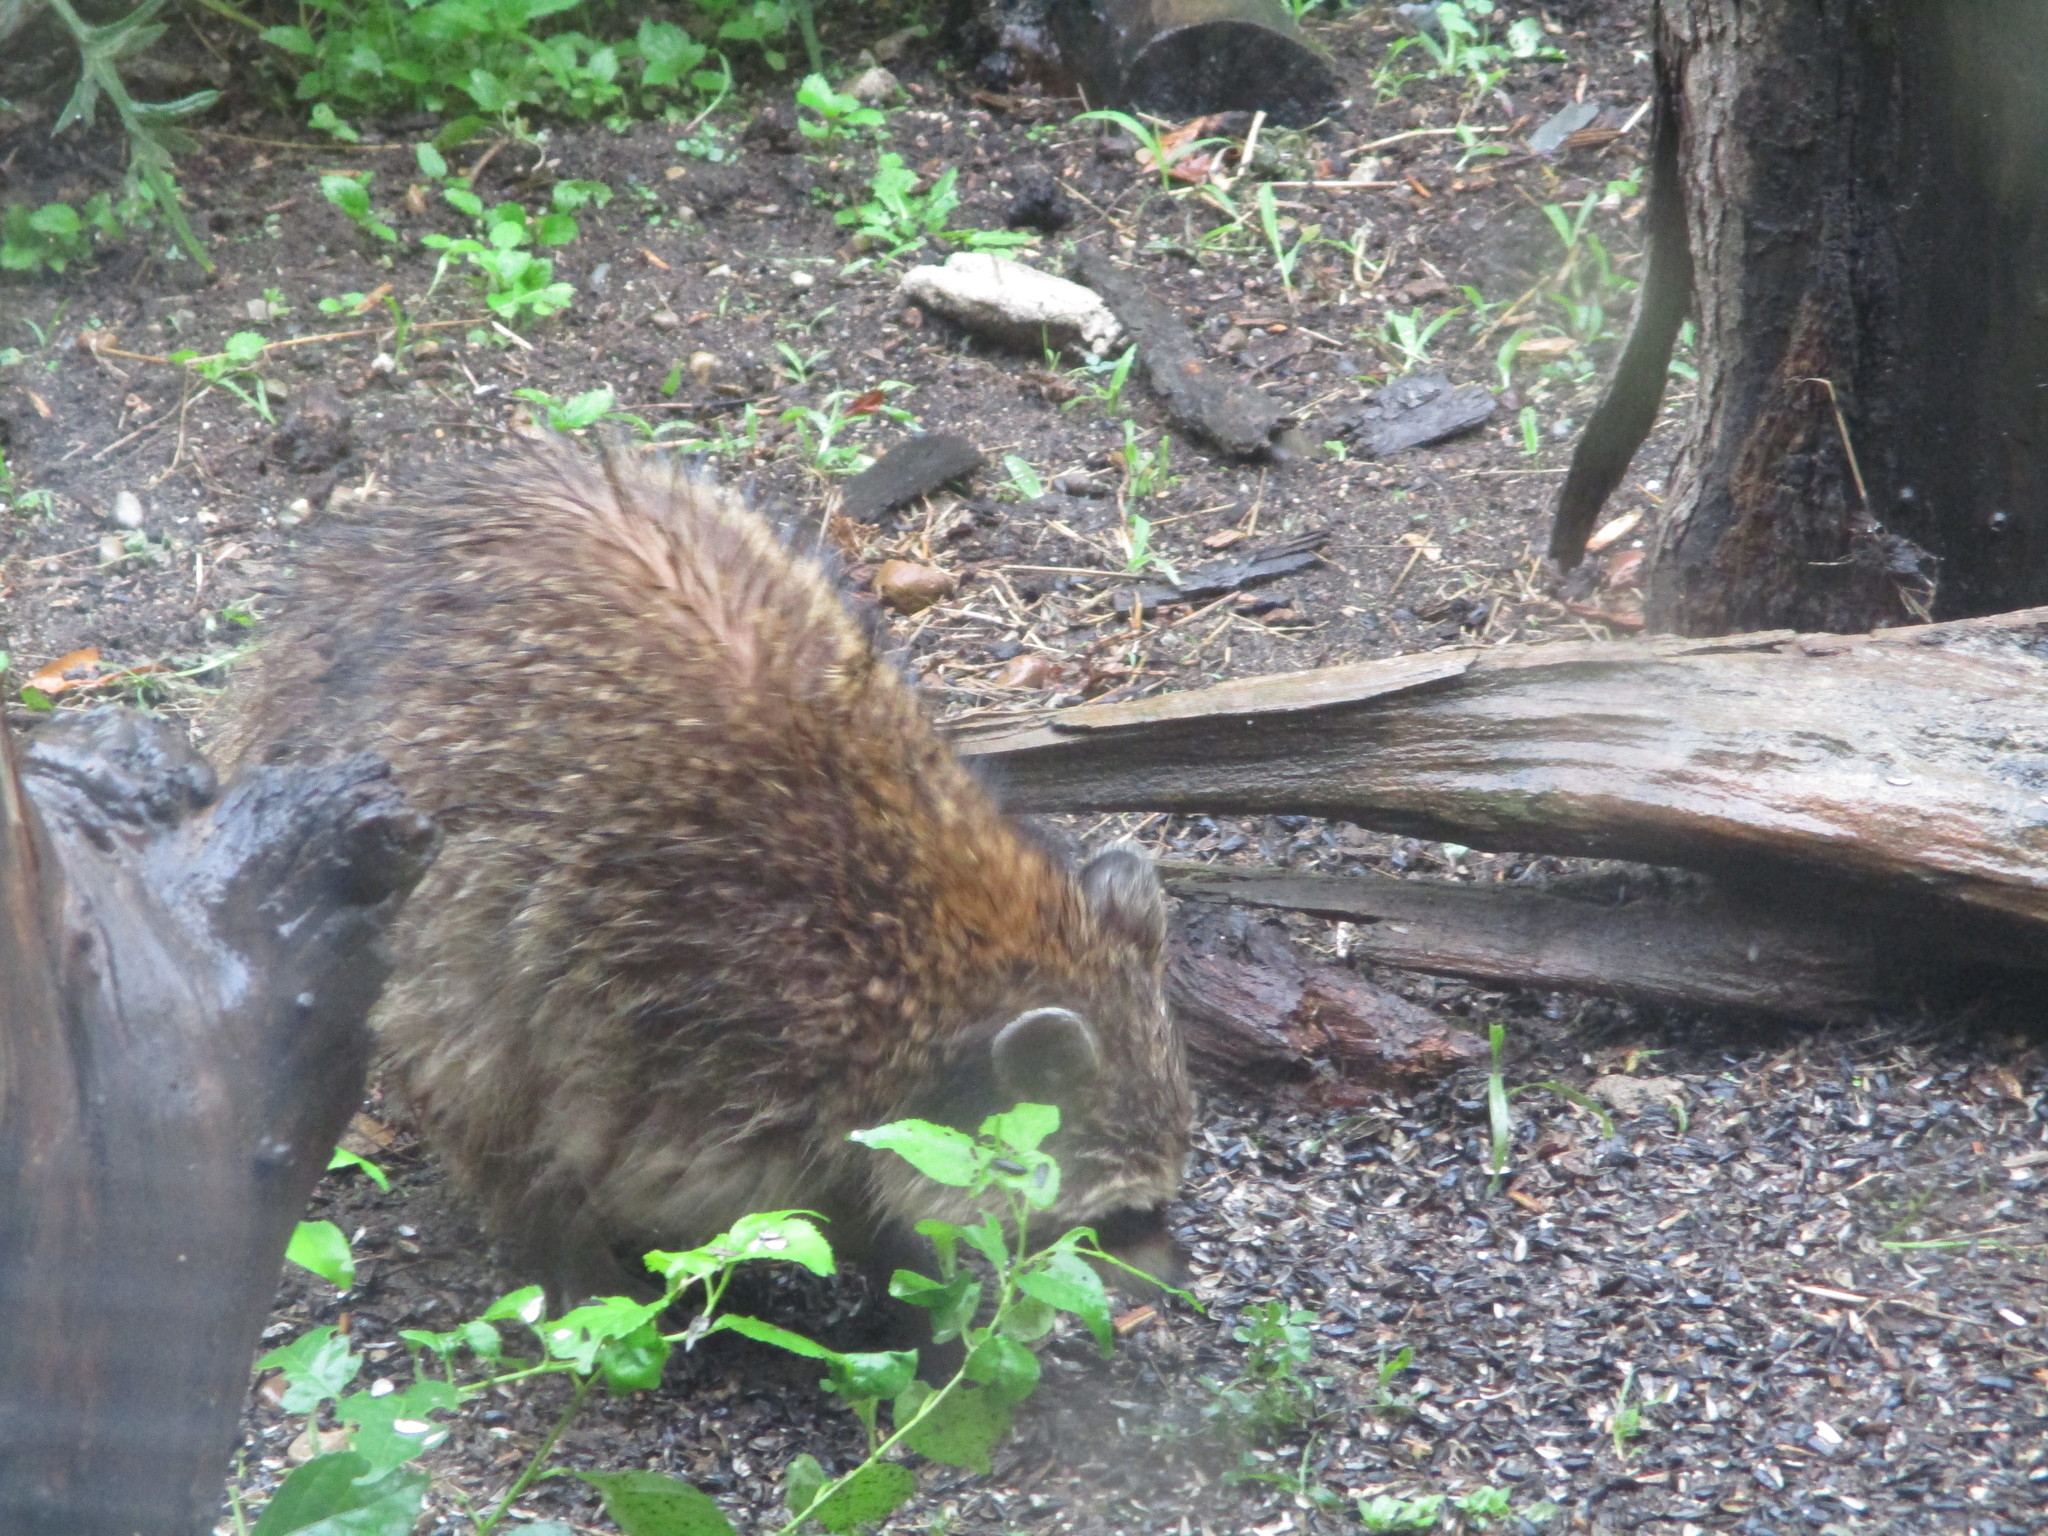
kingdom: Animalia
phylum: Chordata
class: Mammalia
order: Carnivora
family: Procyonidae
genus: Procyon
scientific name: Procyon lotor
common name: Raccoon
